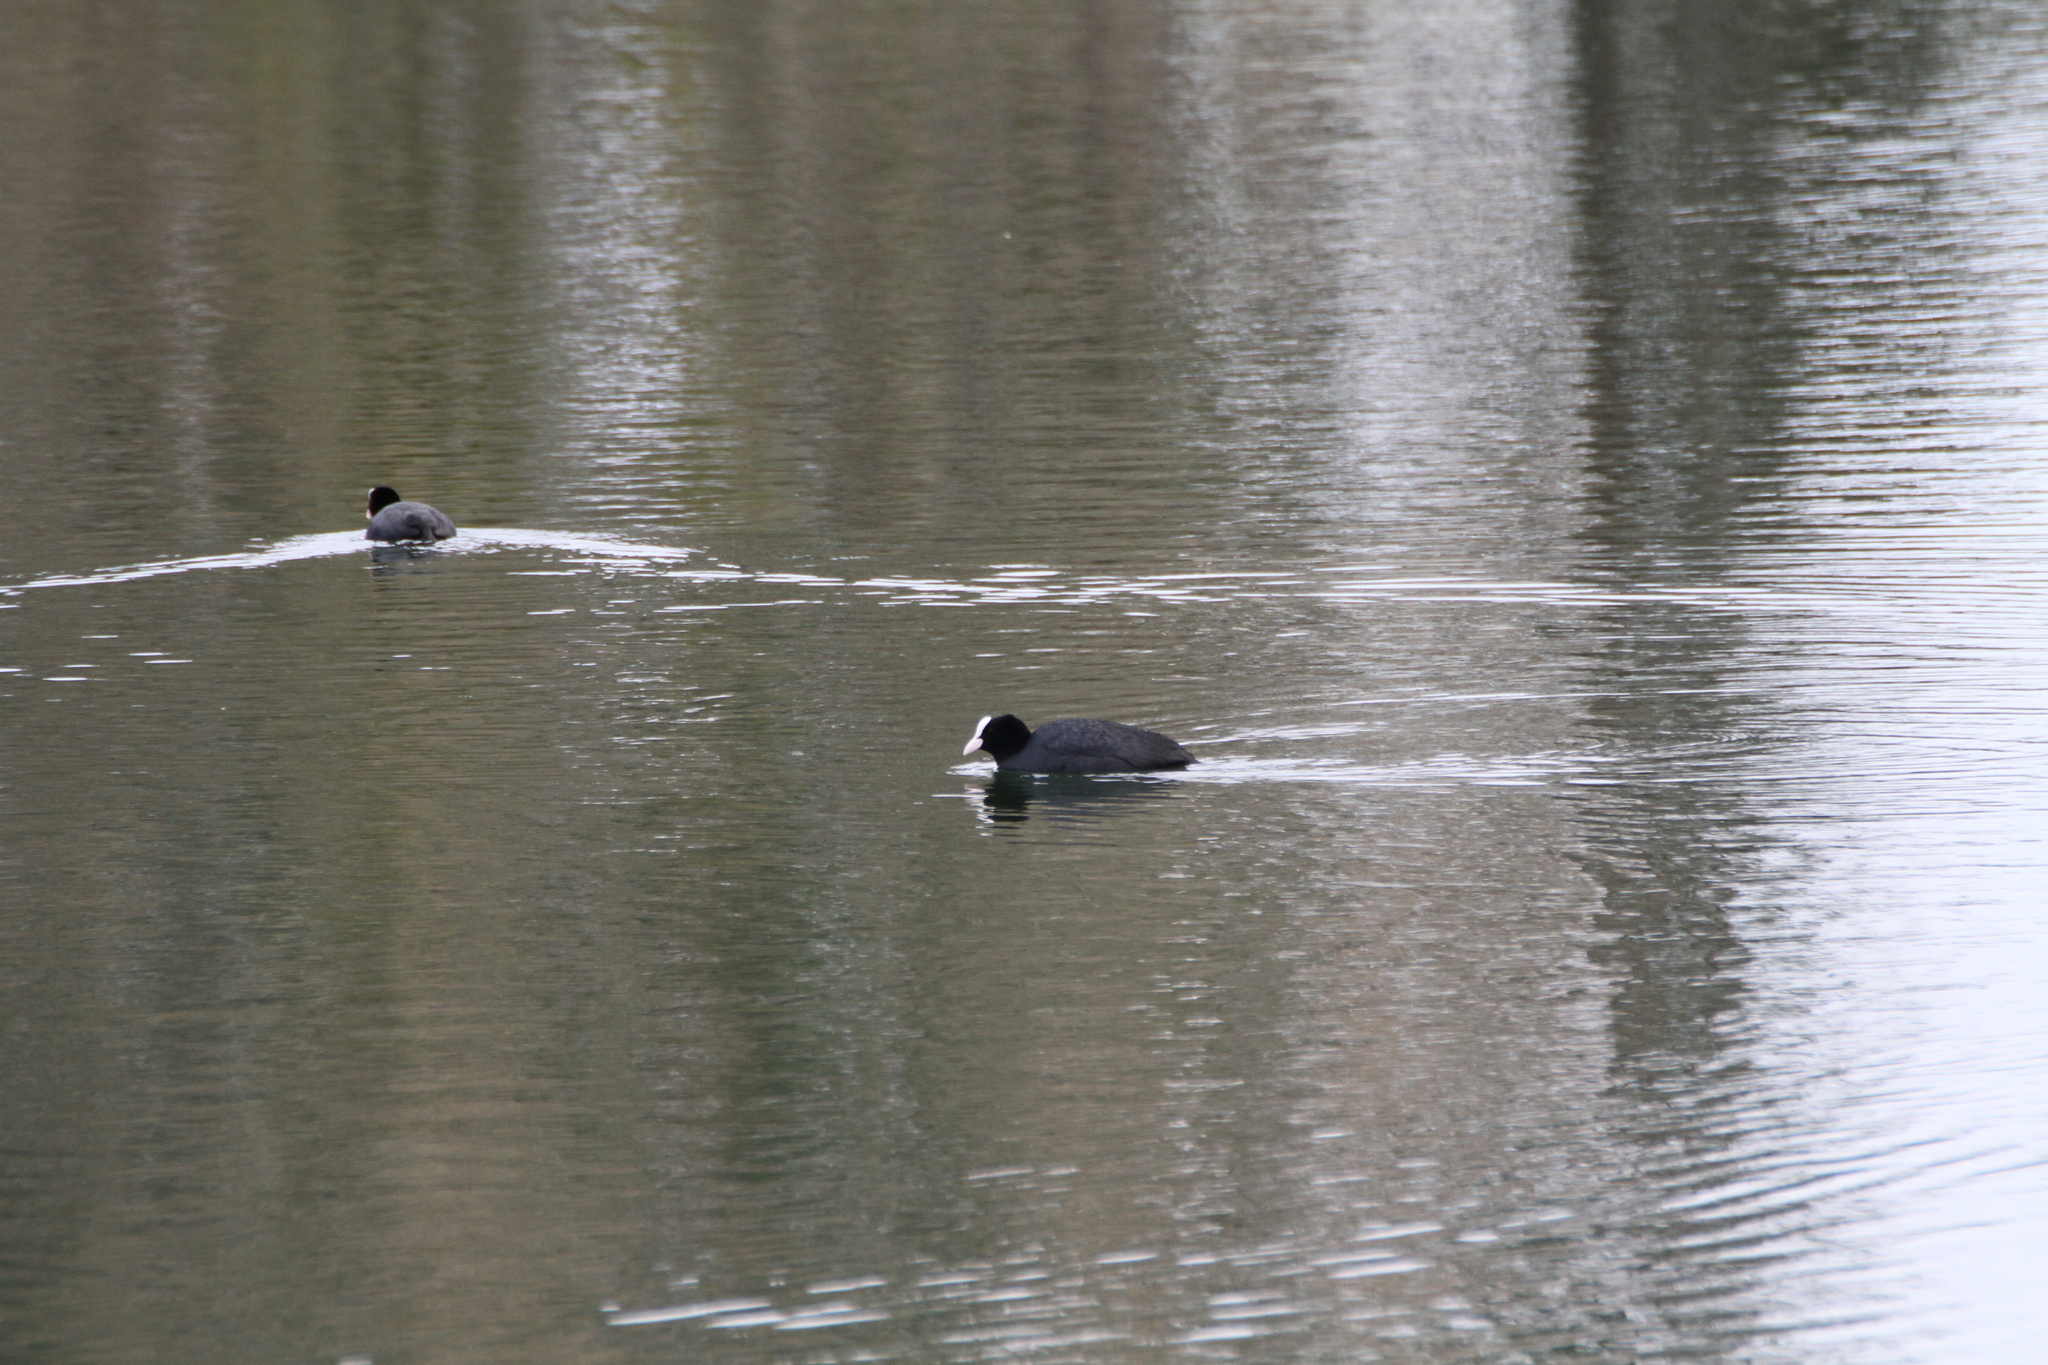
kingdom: Animalia
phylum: Chordata
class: Aves
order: Gruiformes
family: Rallidae
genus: Fulica
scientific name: Fulica atra
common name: Eurasian coot
